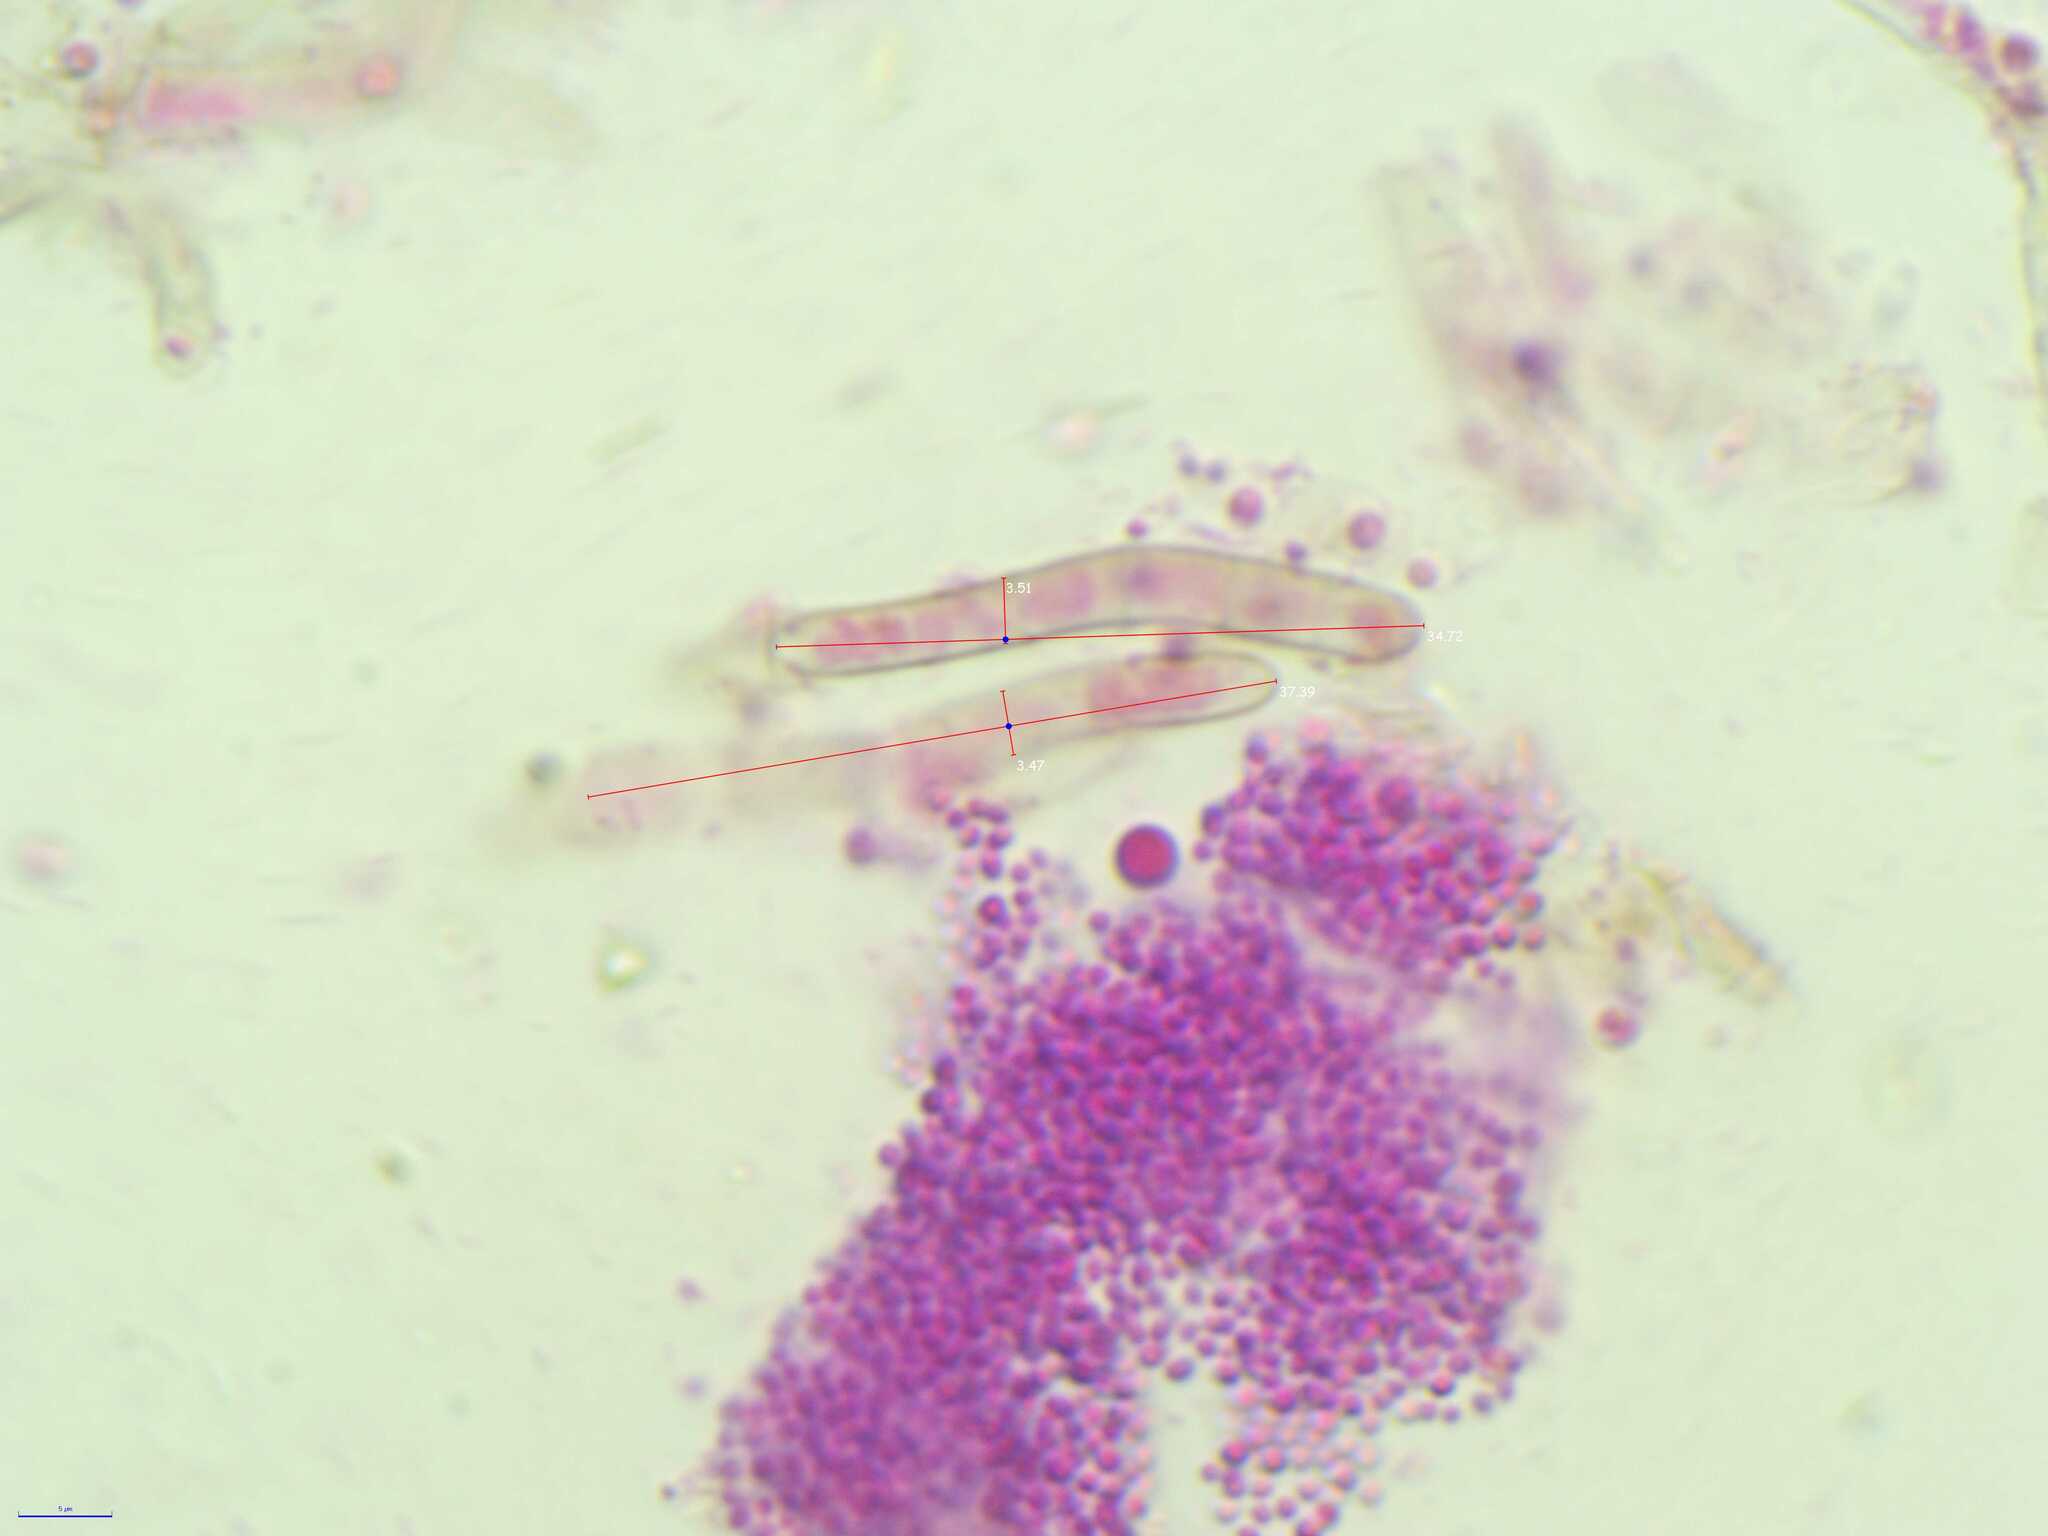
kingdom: Fungi
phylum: Ascomycota
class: Sordariomycetes
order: Sordariales
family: Lasiosphaeriaceae
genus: Lasiosphaeria
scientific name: Lasiosphaeria ovina
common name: Woolly woodwart
